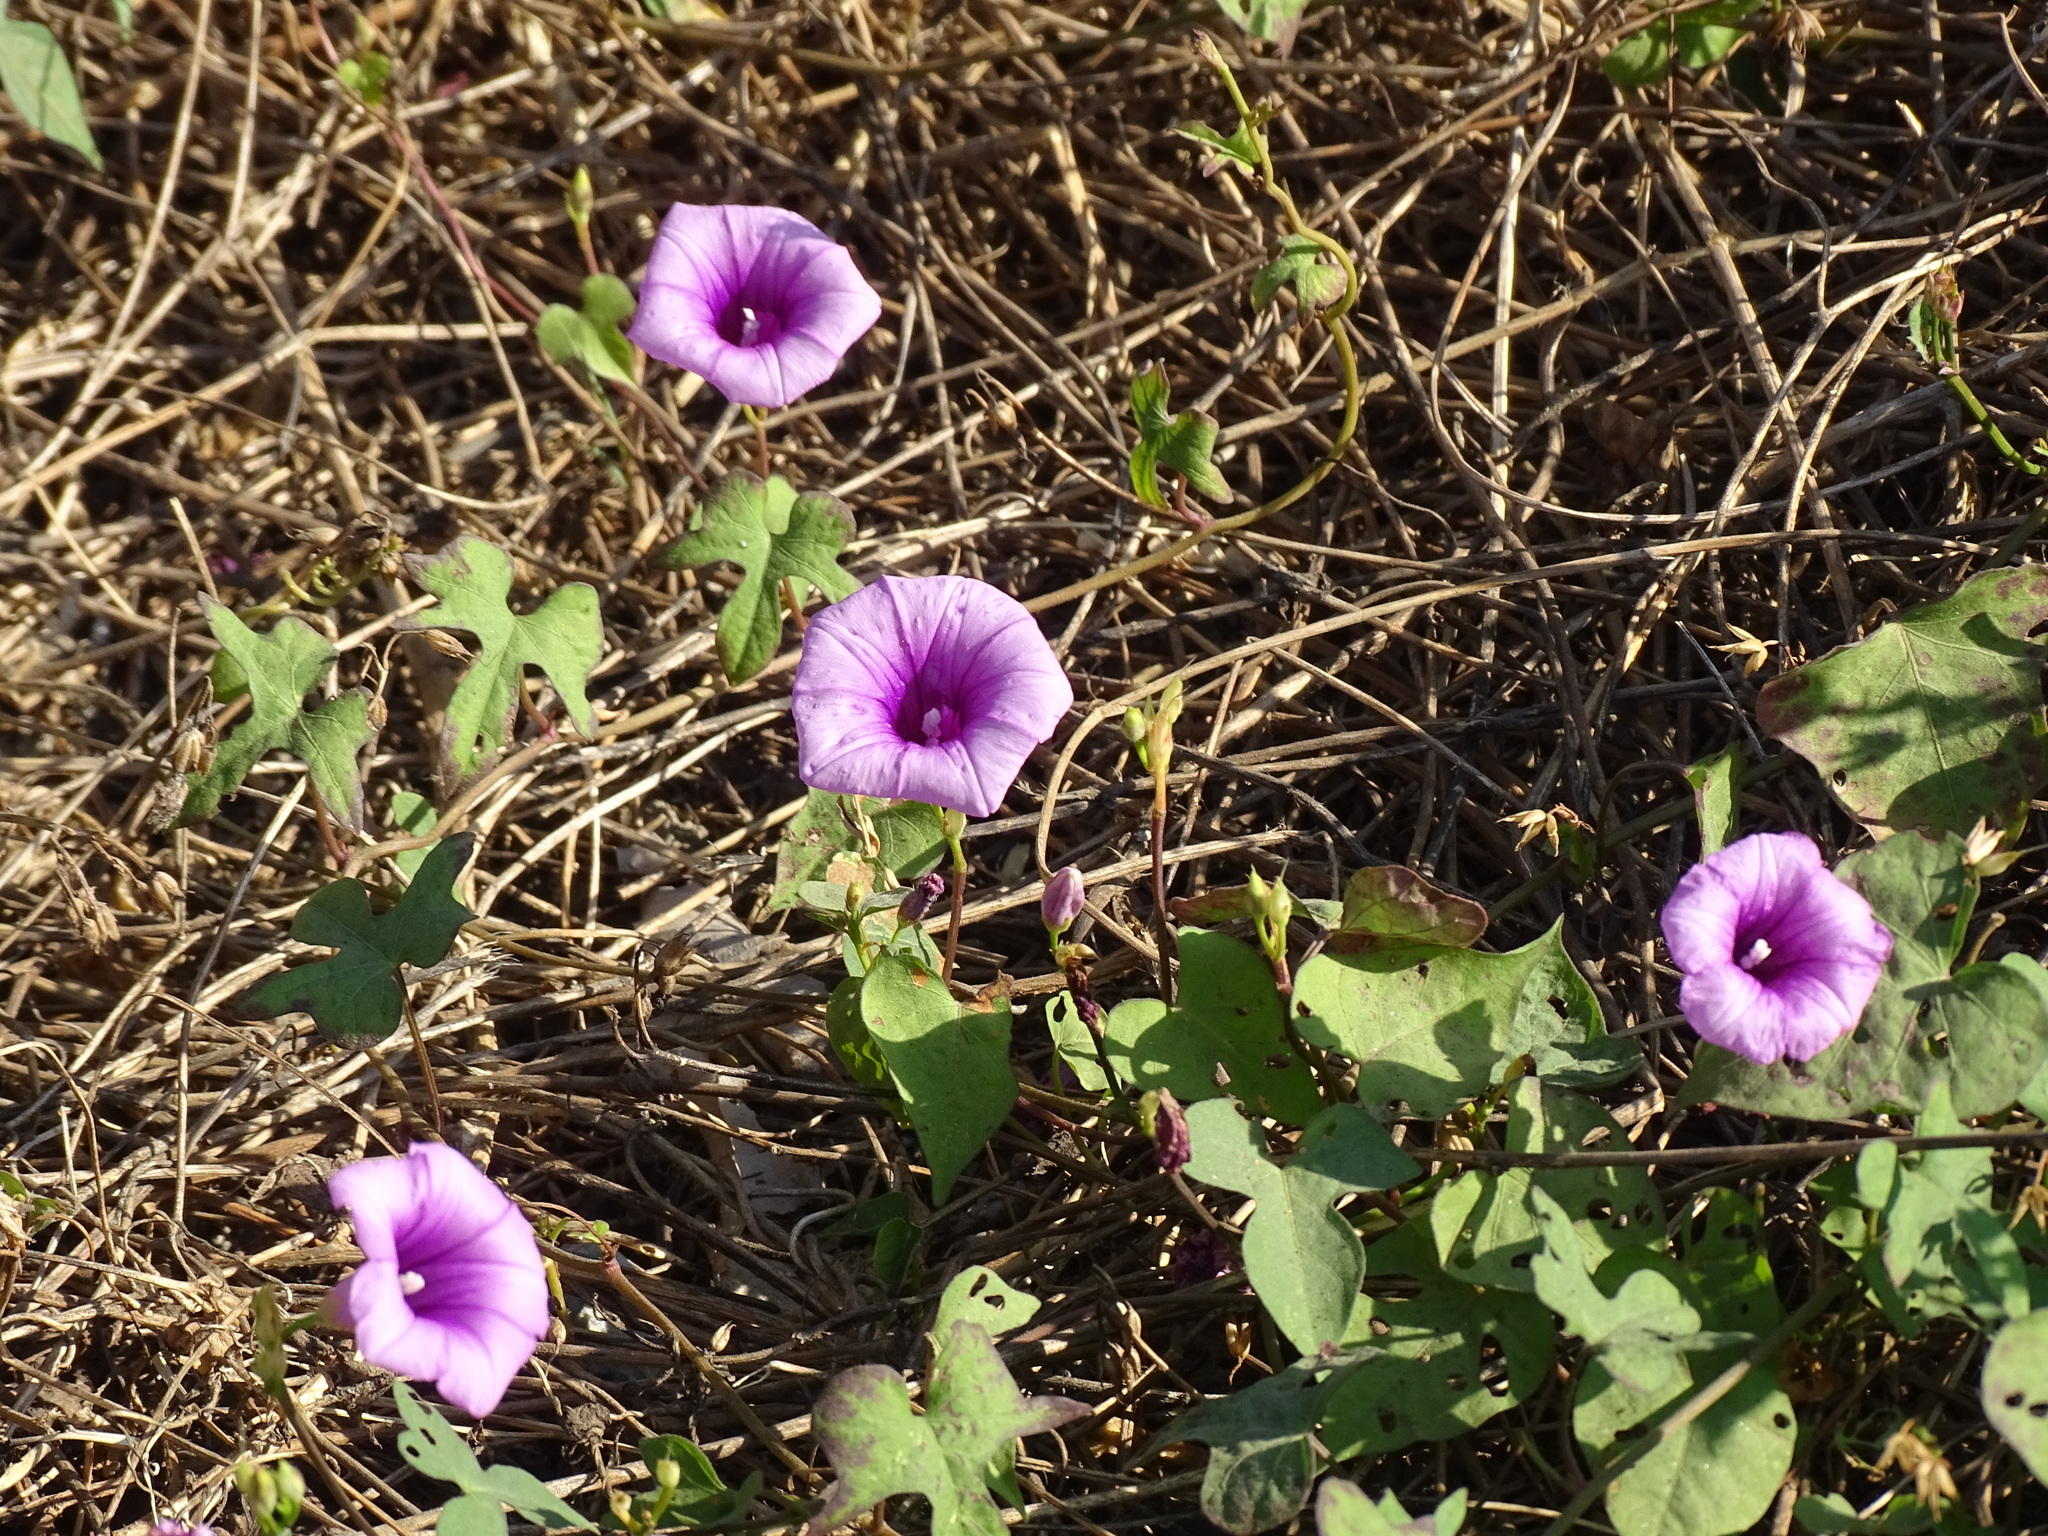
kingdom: Plantae
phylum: Tracheophyta
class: Magnoliopsida
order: Solanales
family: Convolvulaceae
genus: Ipomoea
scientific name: Ipomoea trifida
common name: Cotton morningglory
